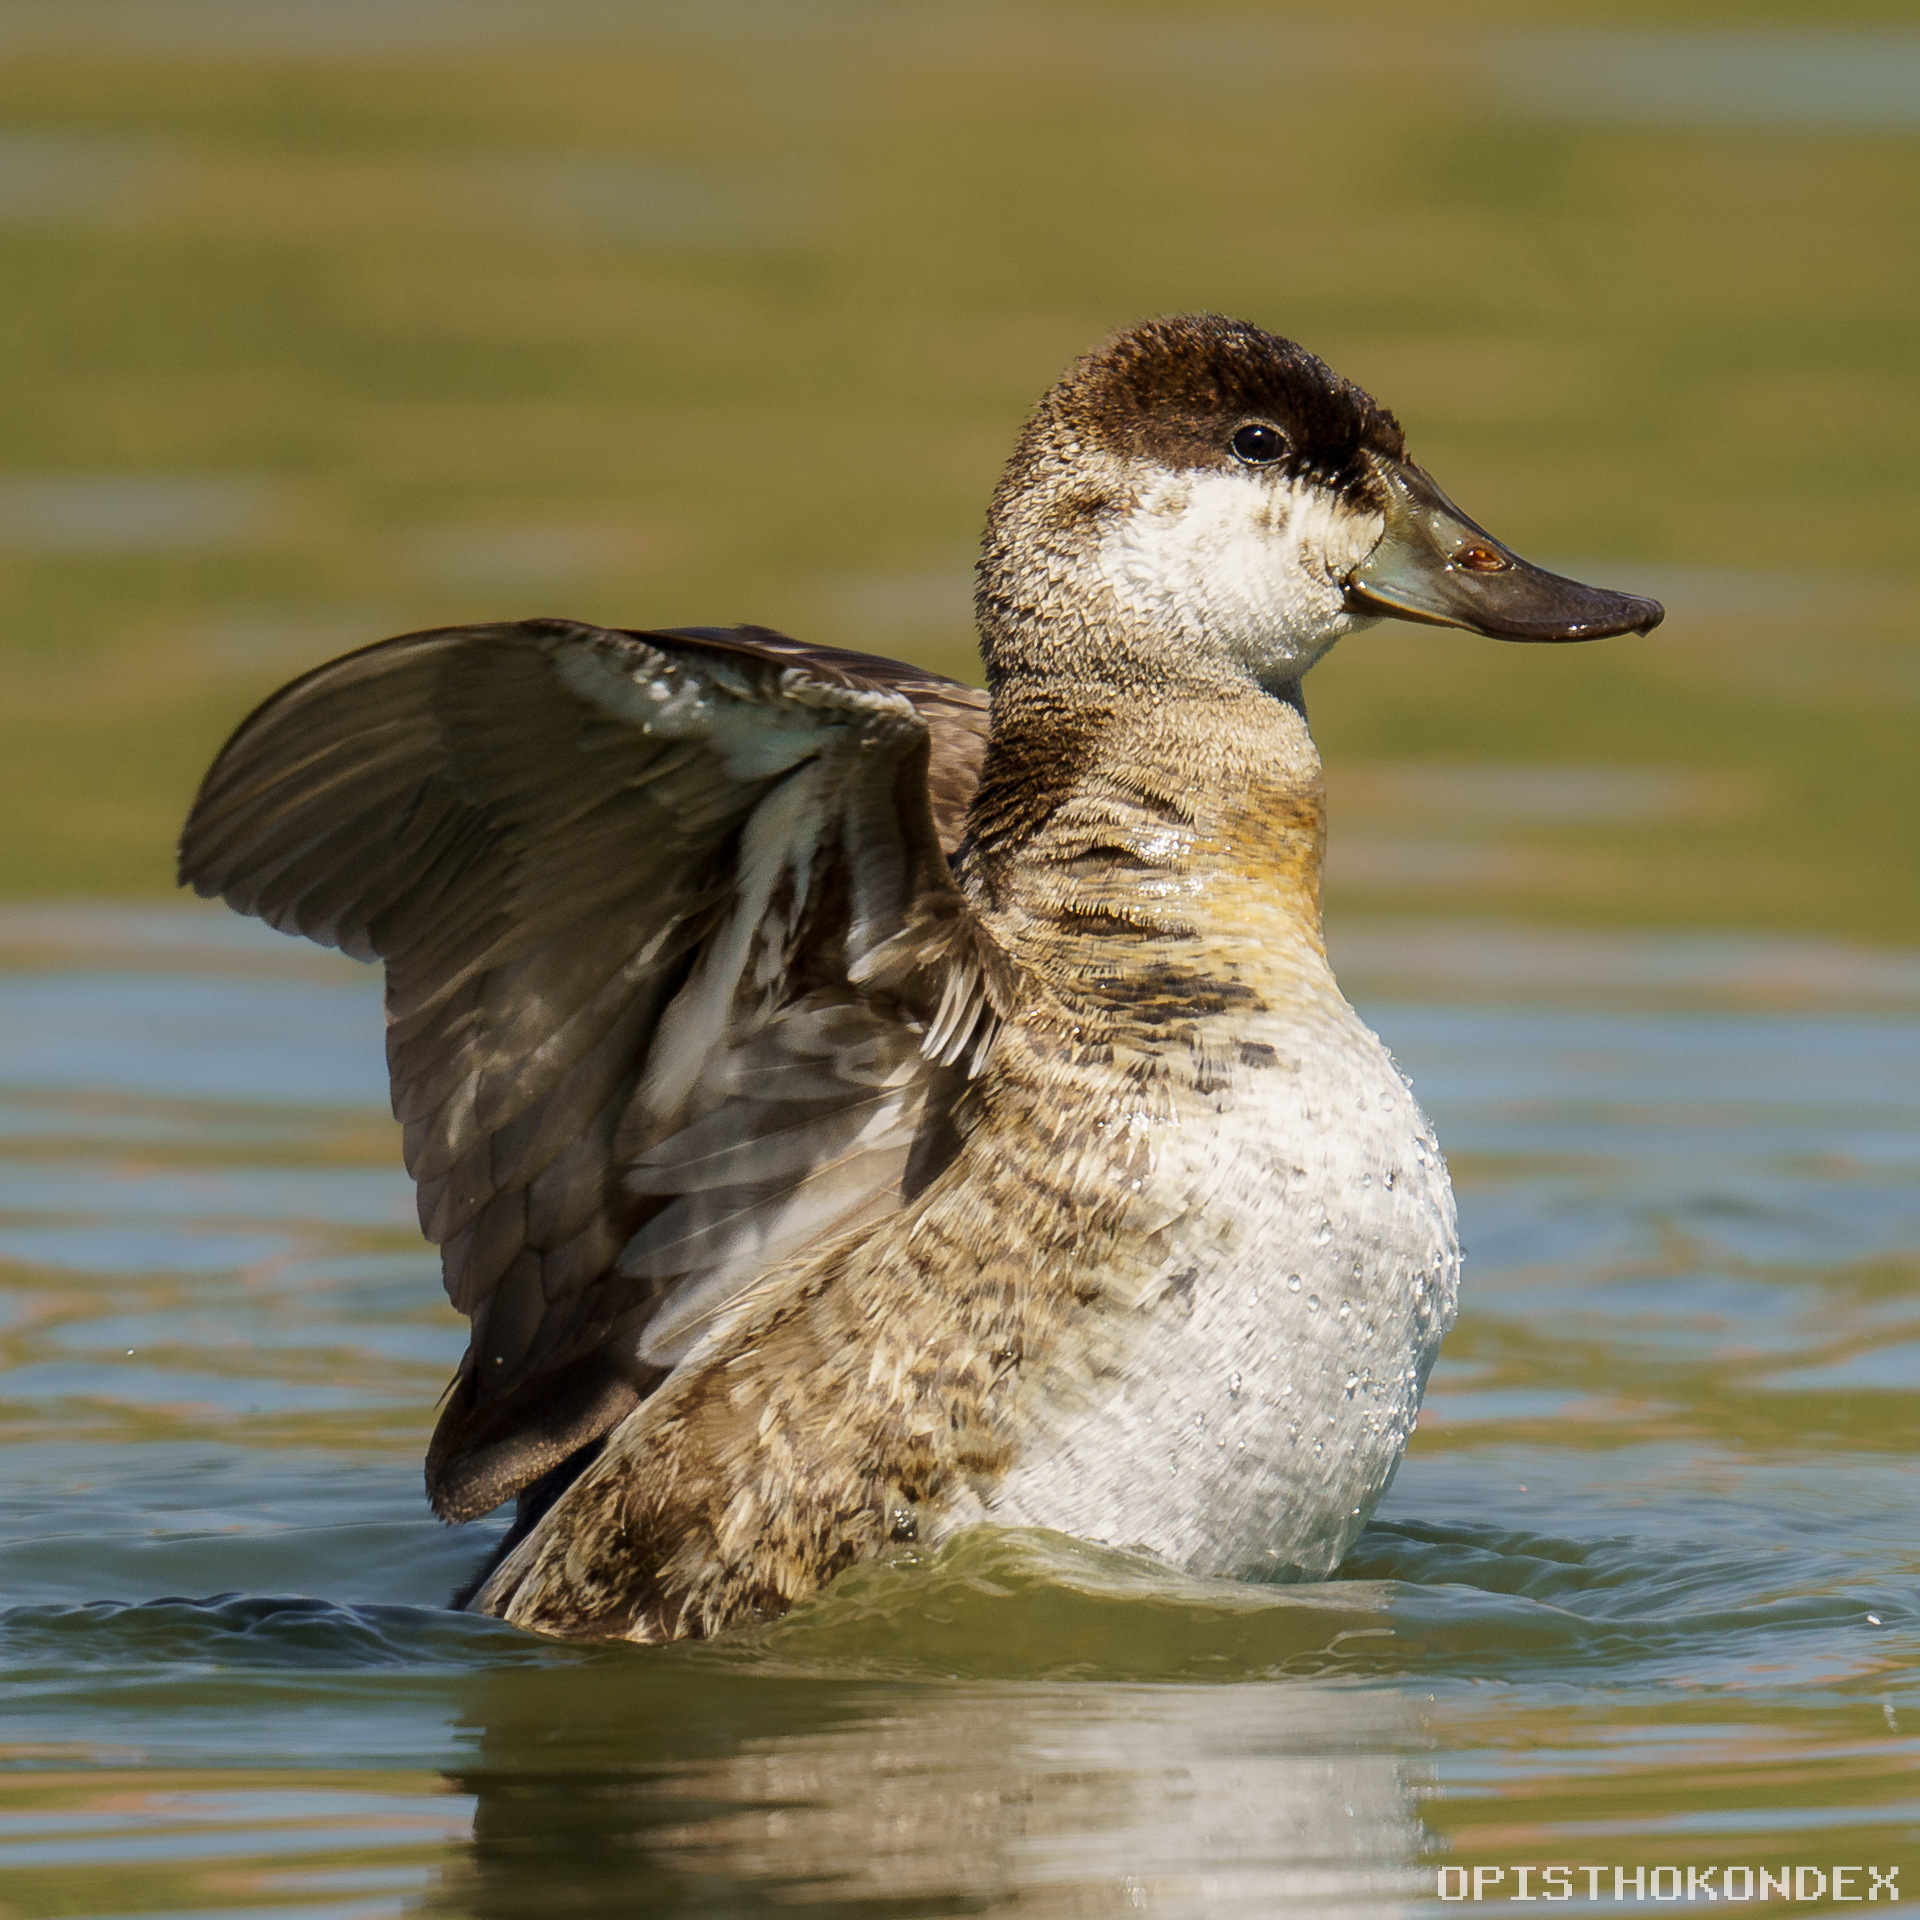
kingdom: Animalia
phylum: Chordata
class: Aves
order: Anseriformes
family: Anatidae
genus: Oxyura
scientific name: Oxyura jamaicensis
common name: Ruddy duck
